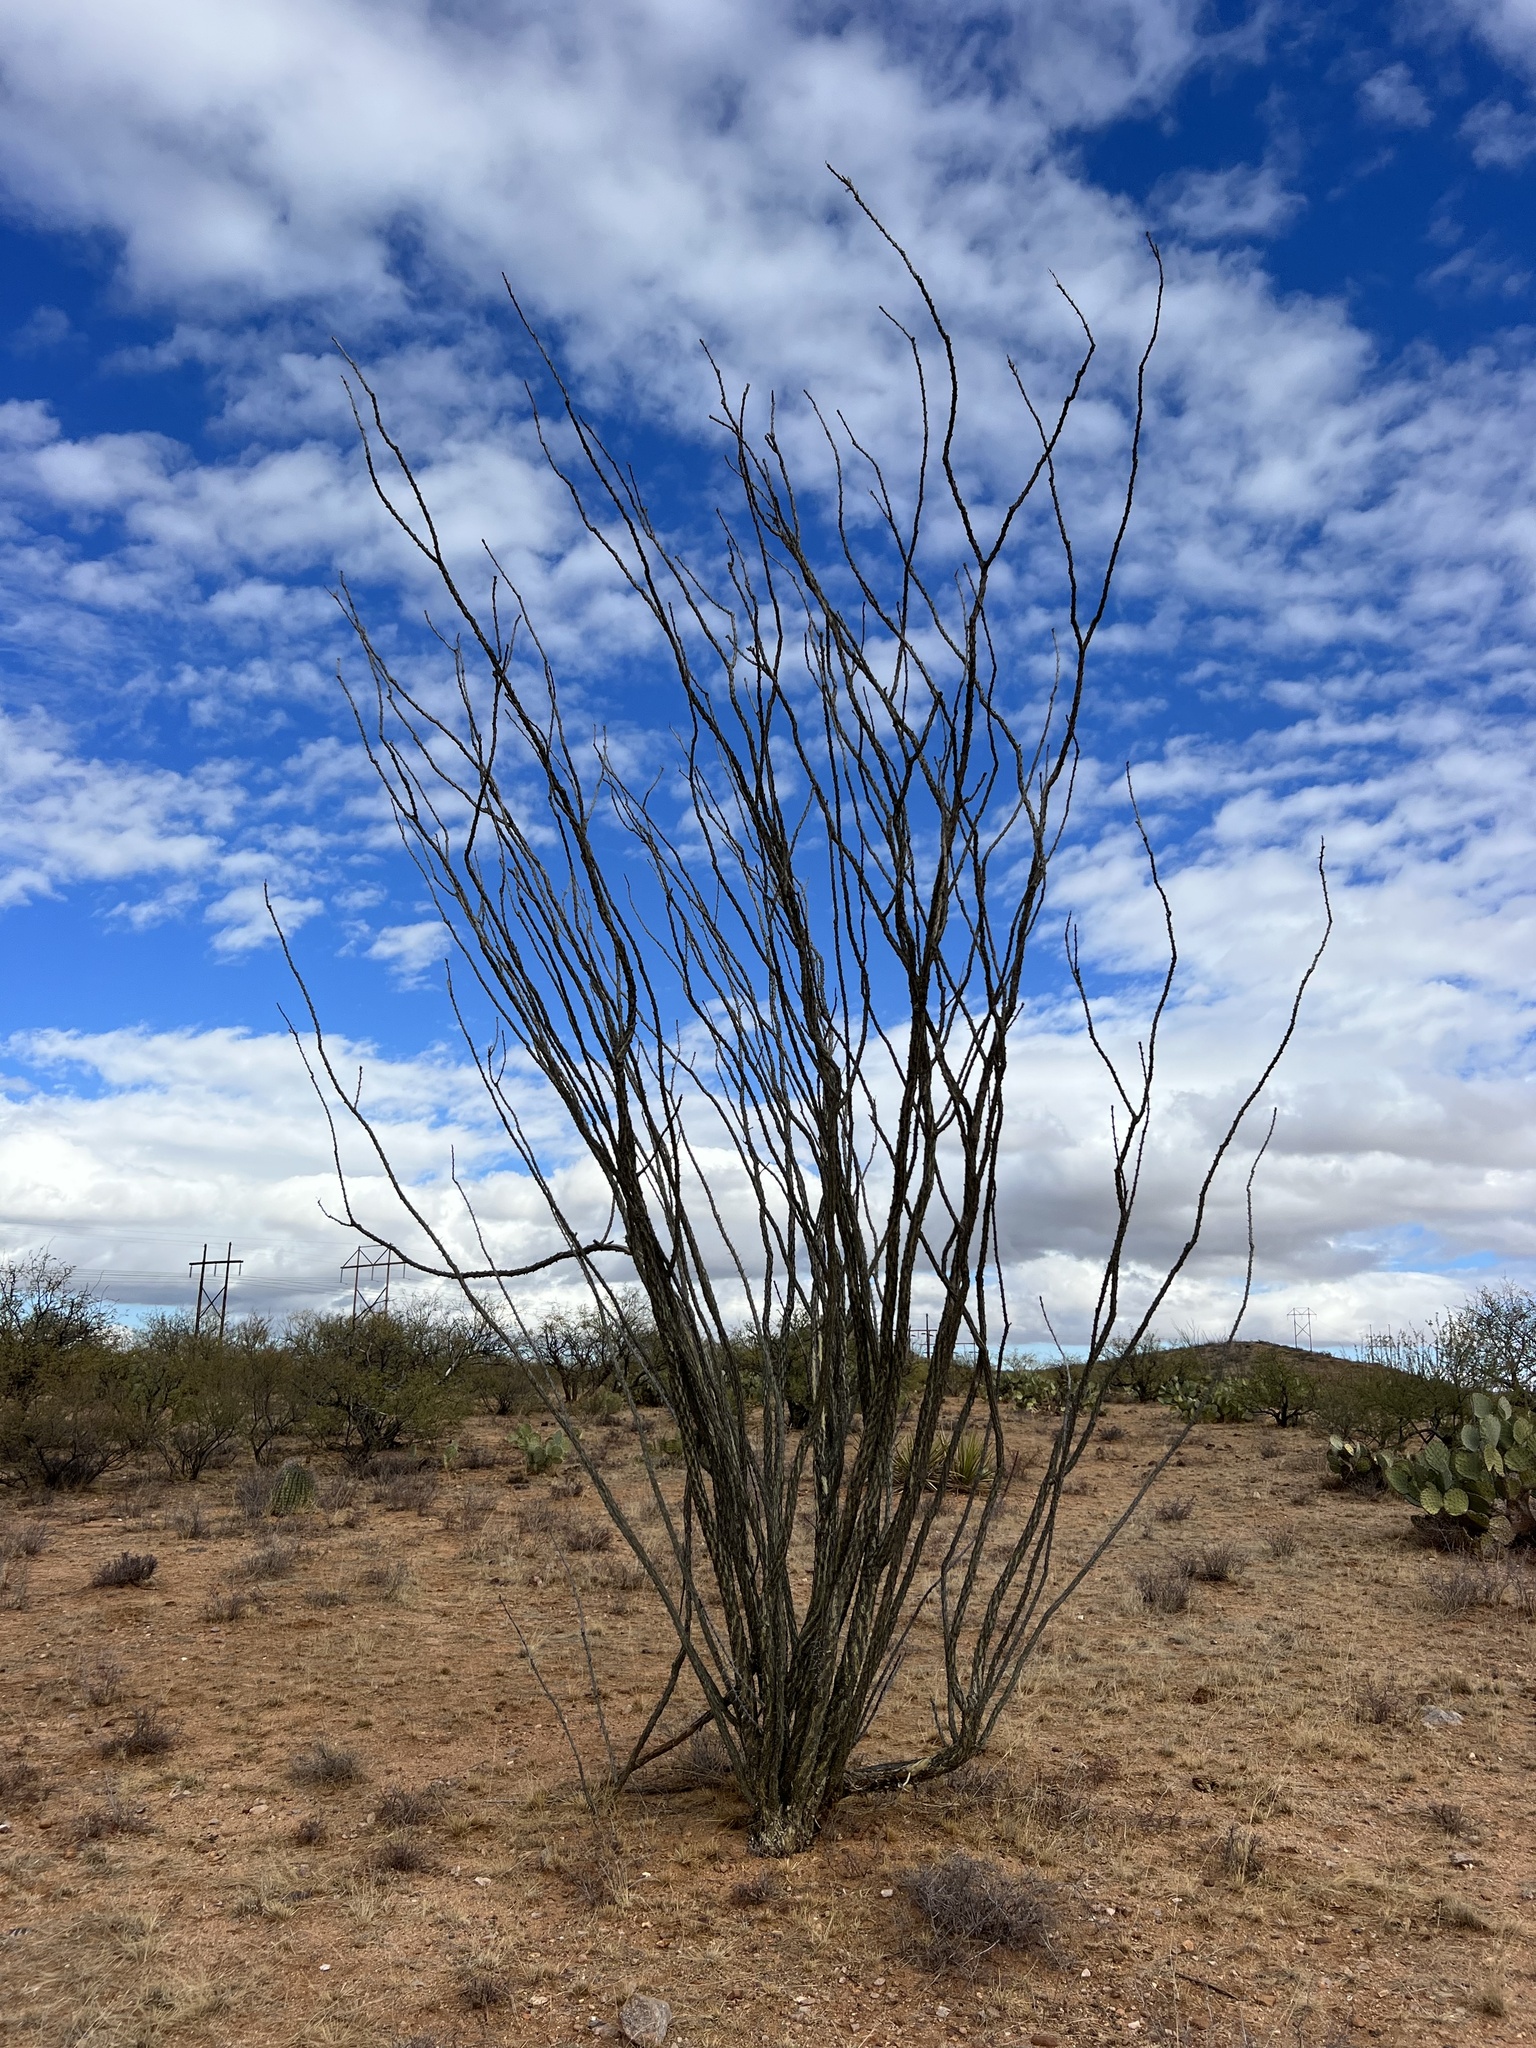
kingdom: Plantae
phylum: Tracheophyta
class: Magnoliopsida
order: Ericales
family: Fouquieriaceae
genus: Fouquieria
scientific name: Fouquieria splendens
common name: Vine-cactus
